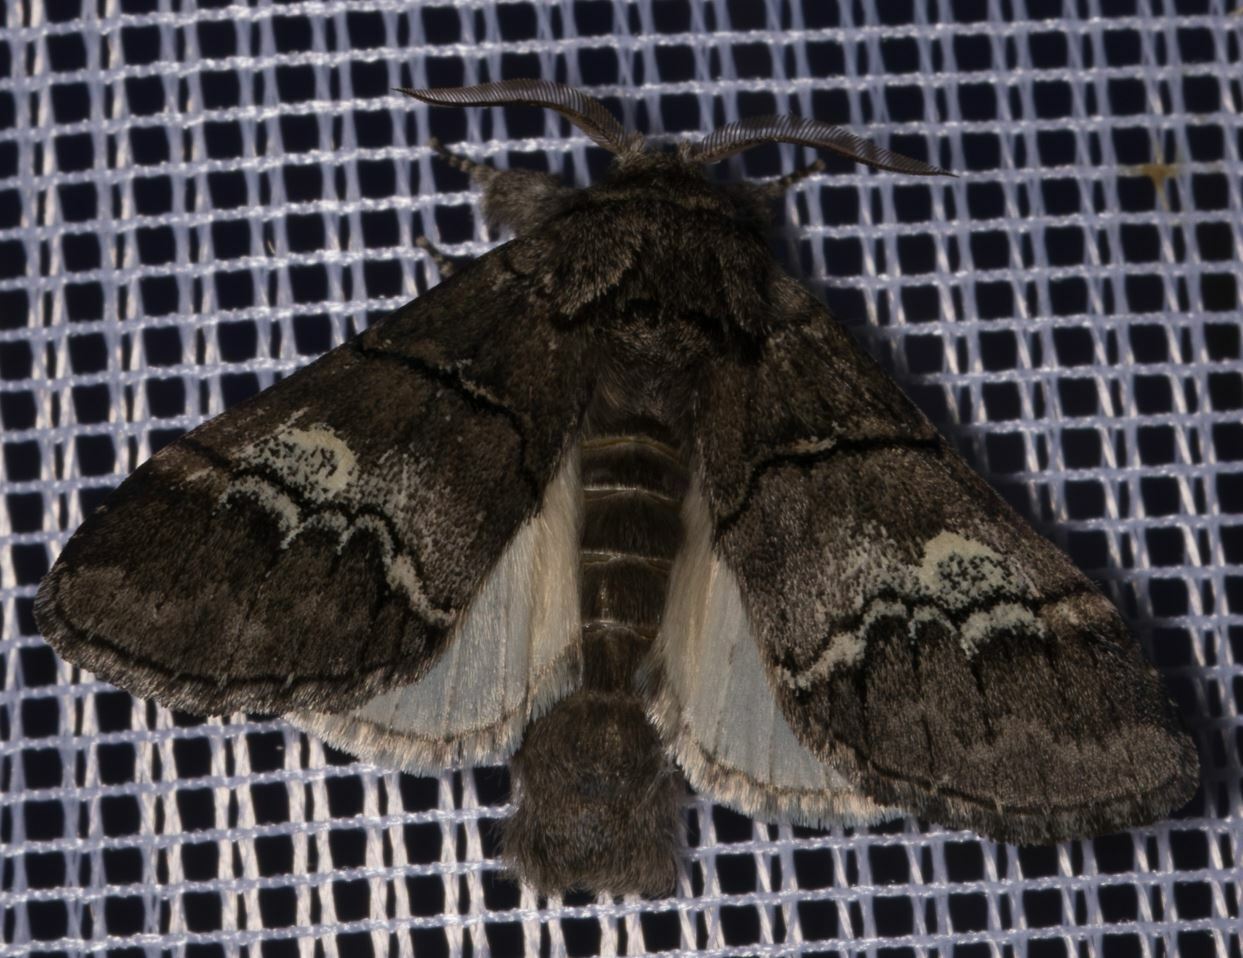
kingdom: Animalia
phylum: Arthropoda
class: Insecta
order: Lepidoptera
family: Notodontidae
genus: Drymonia
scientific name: Drymonia querna
